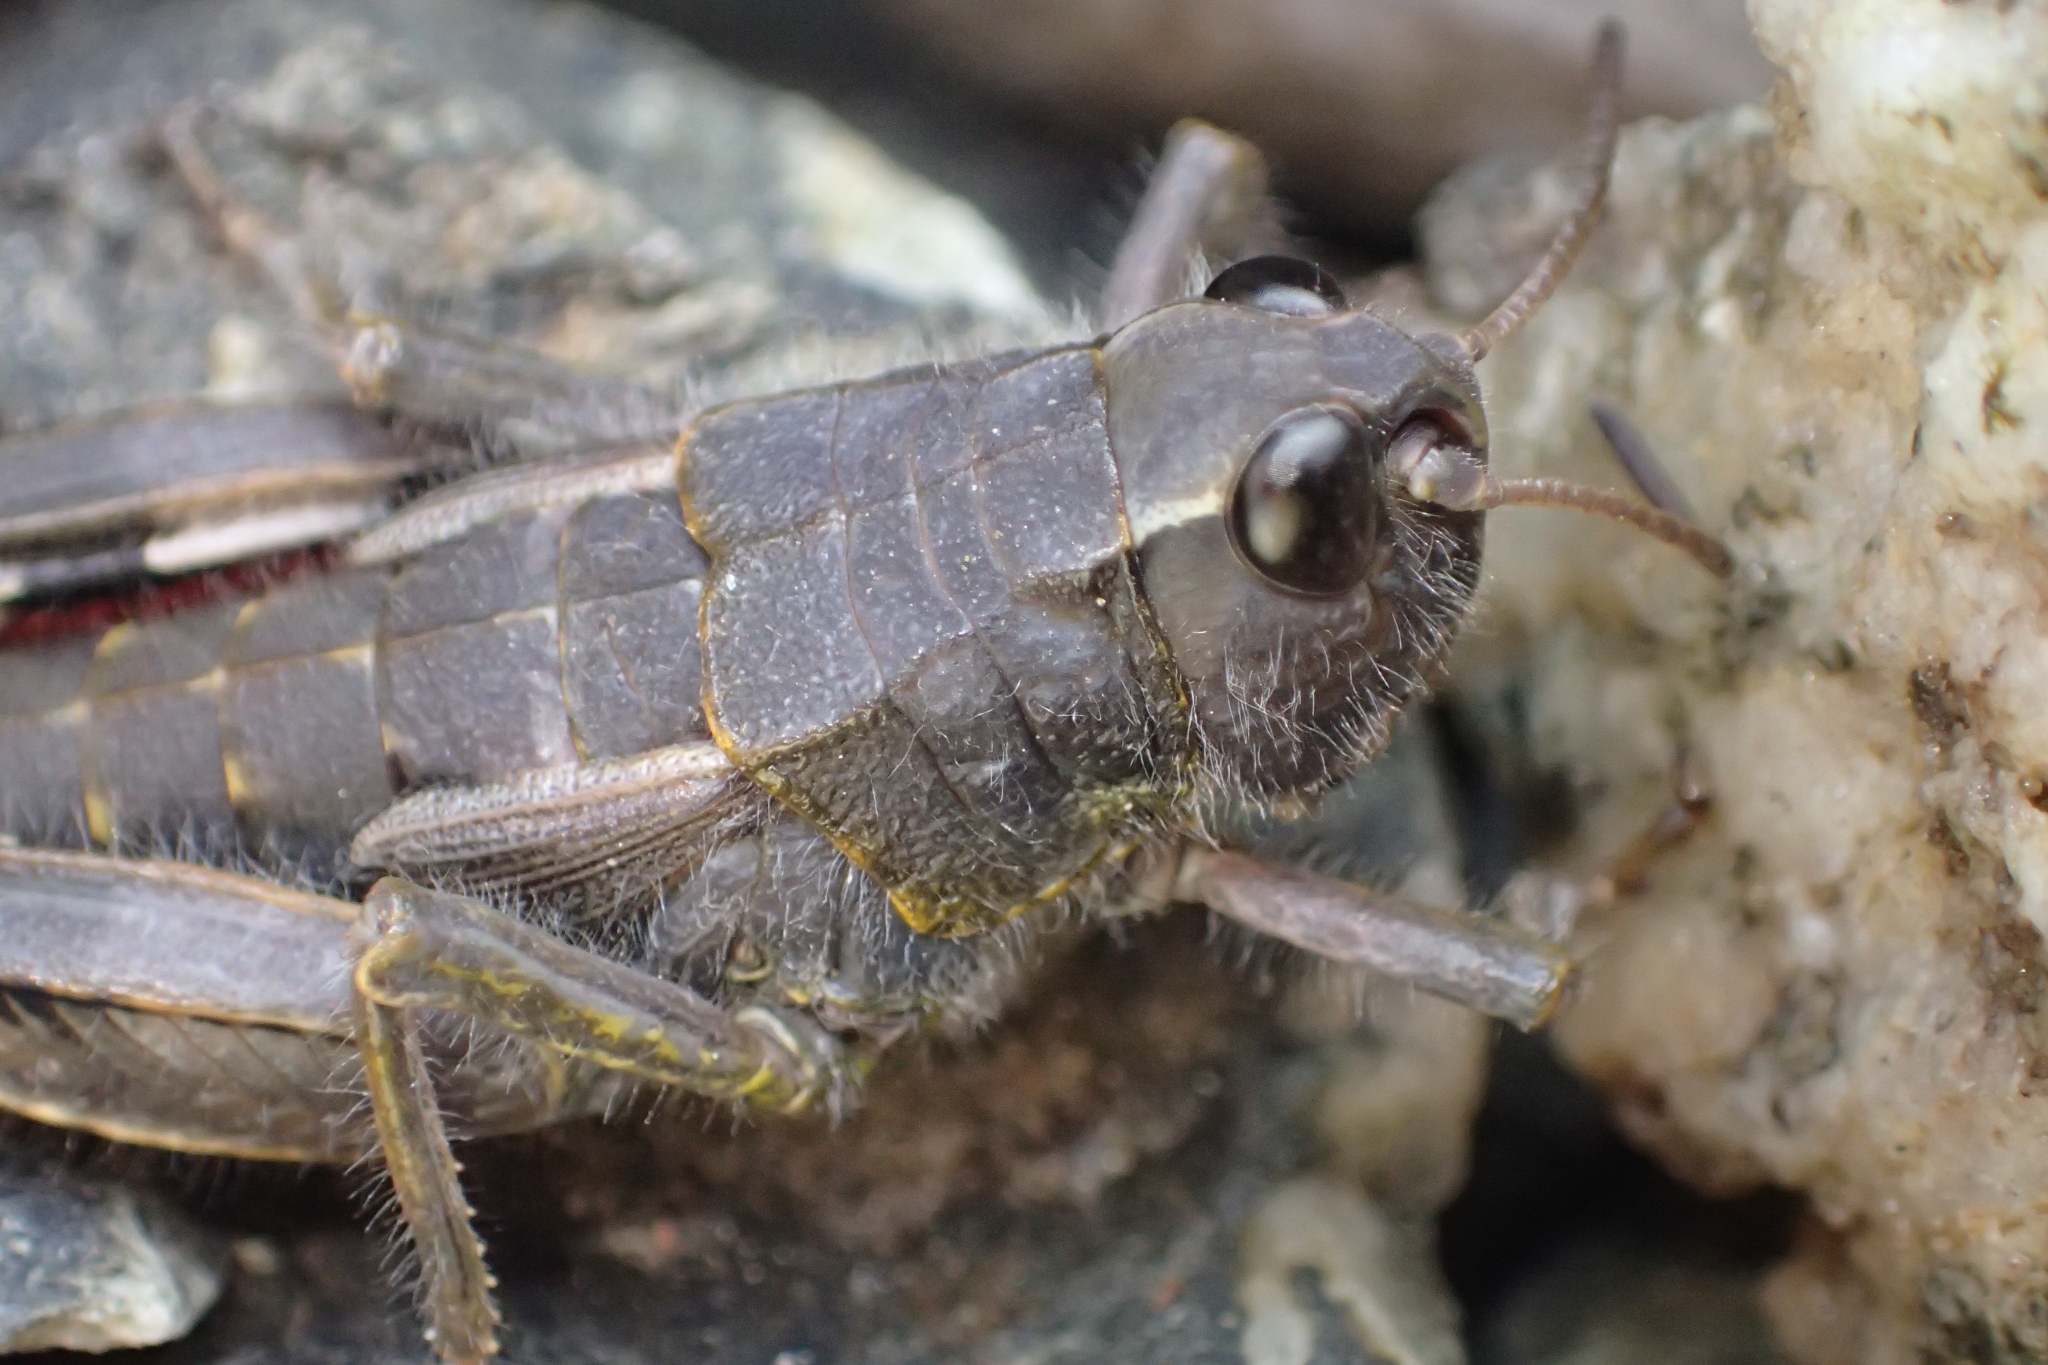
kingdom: Animalia
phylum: Arthropoda
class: Insecta
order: Orthoptera
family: Acrididae
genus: Sigaus
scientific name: Sigaus australis
